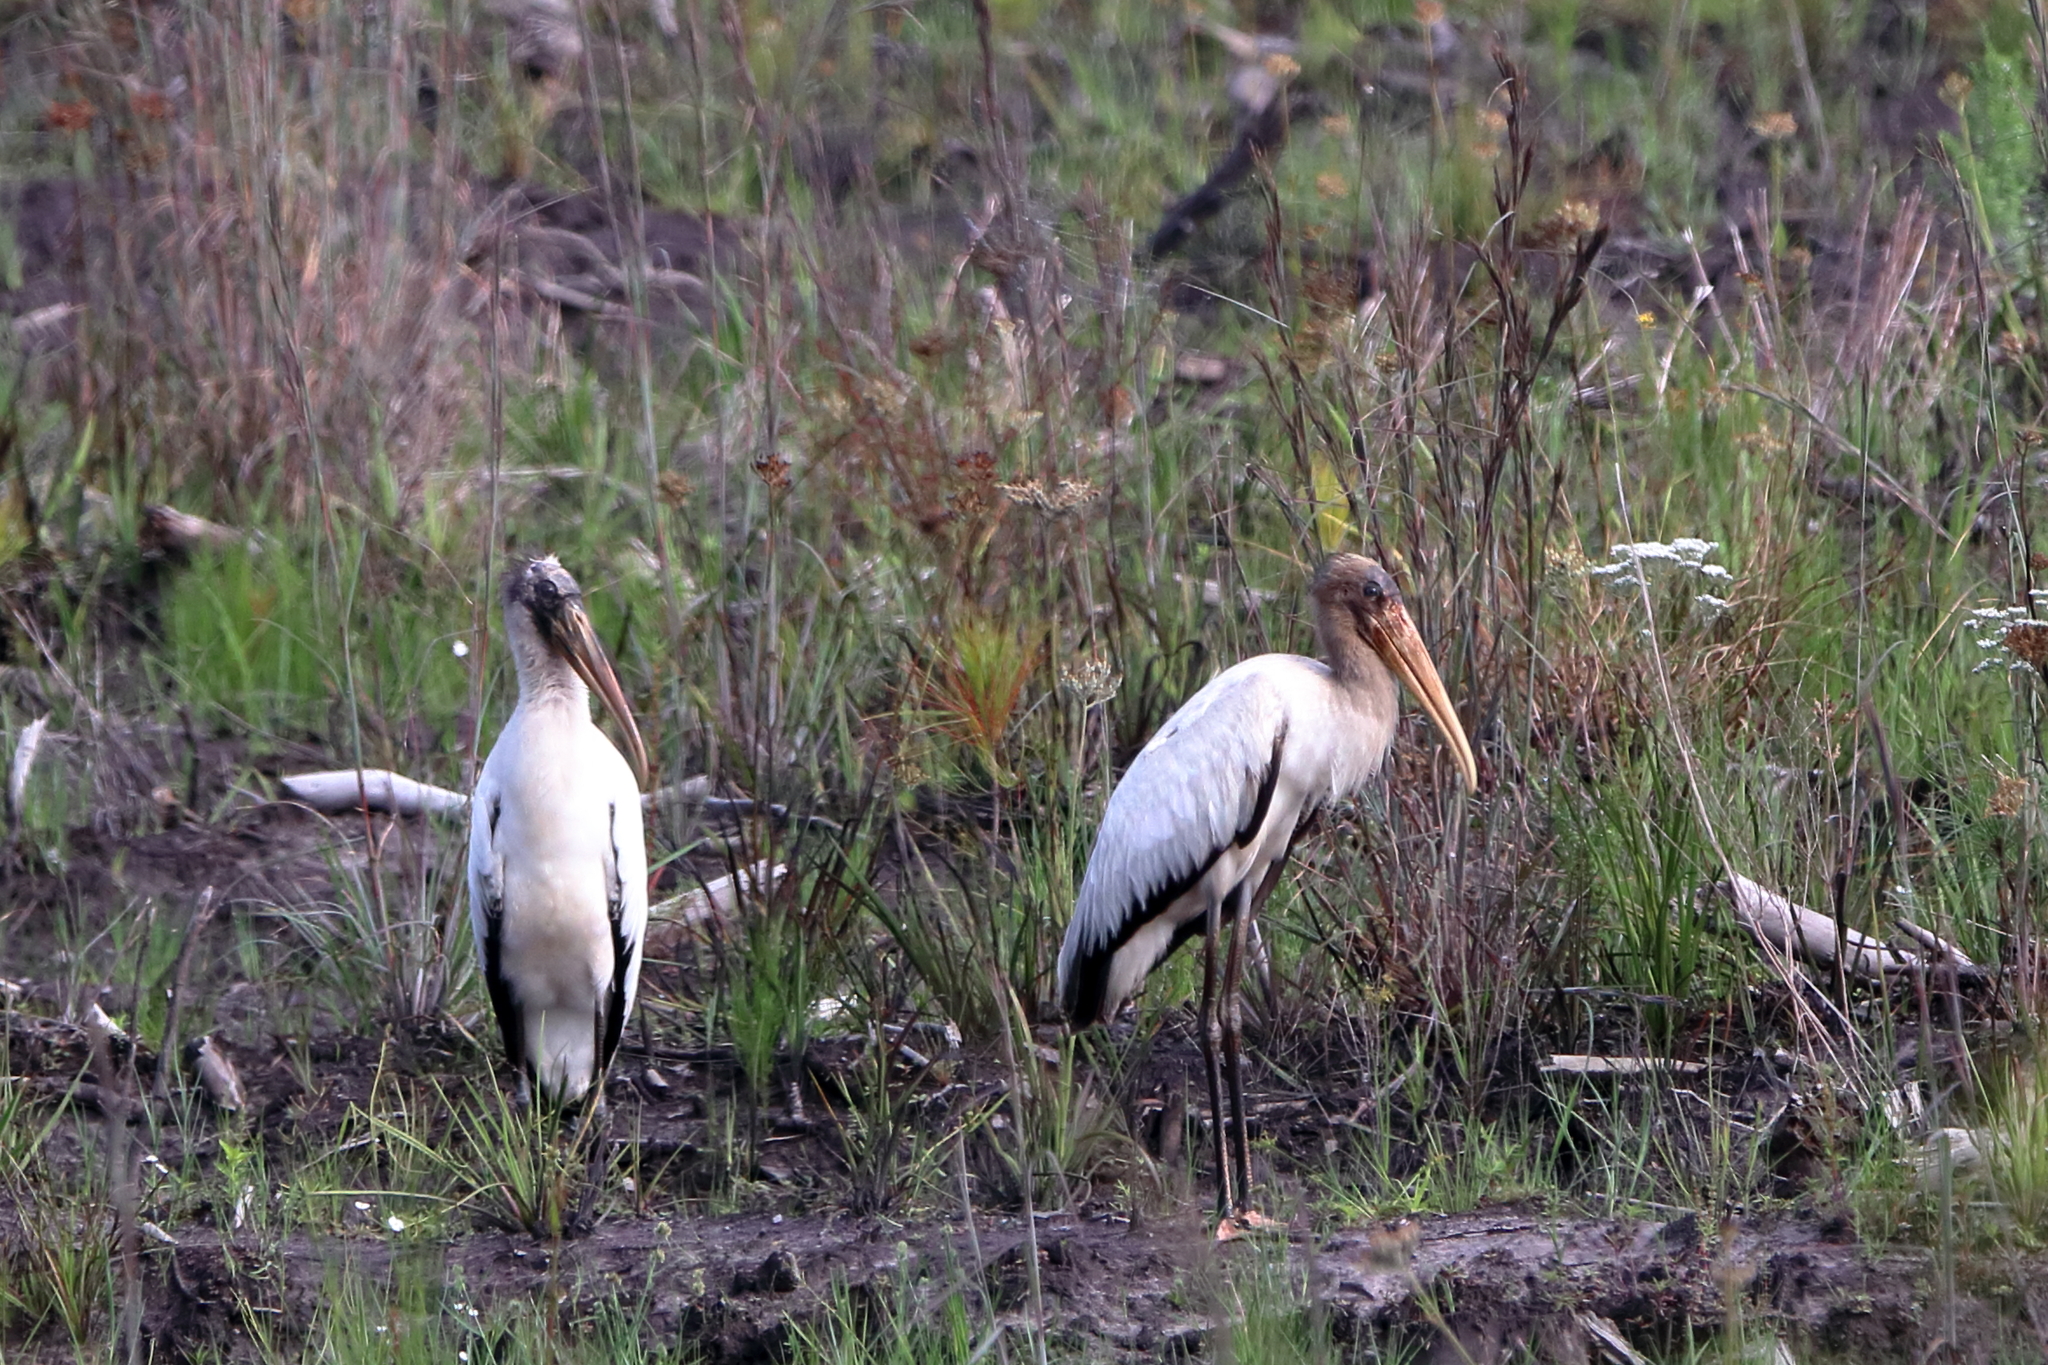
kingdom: Animalia
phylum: Chordata
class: Aves
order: Ciconiiformes
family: Ciconiidae
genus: Mycteria
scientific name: Mycteria americana
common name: Wood stork
